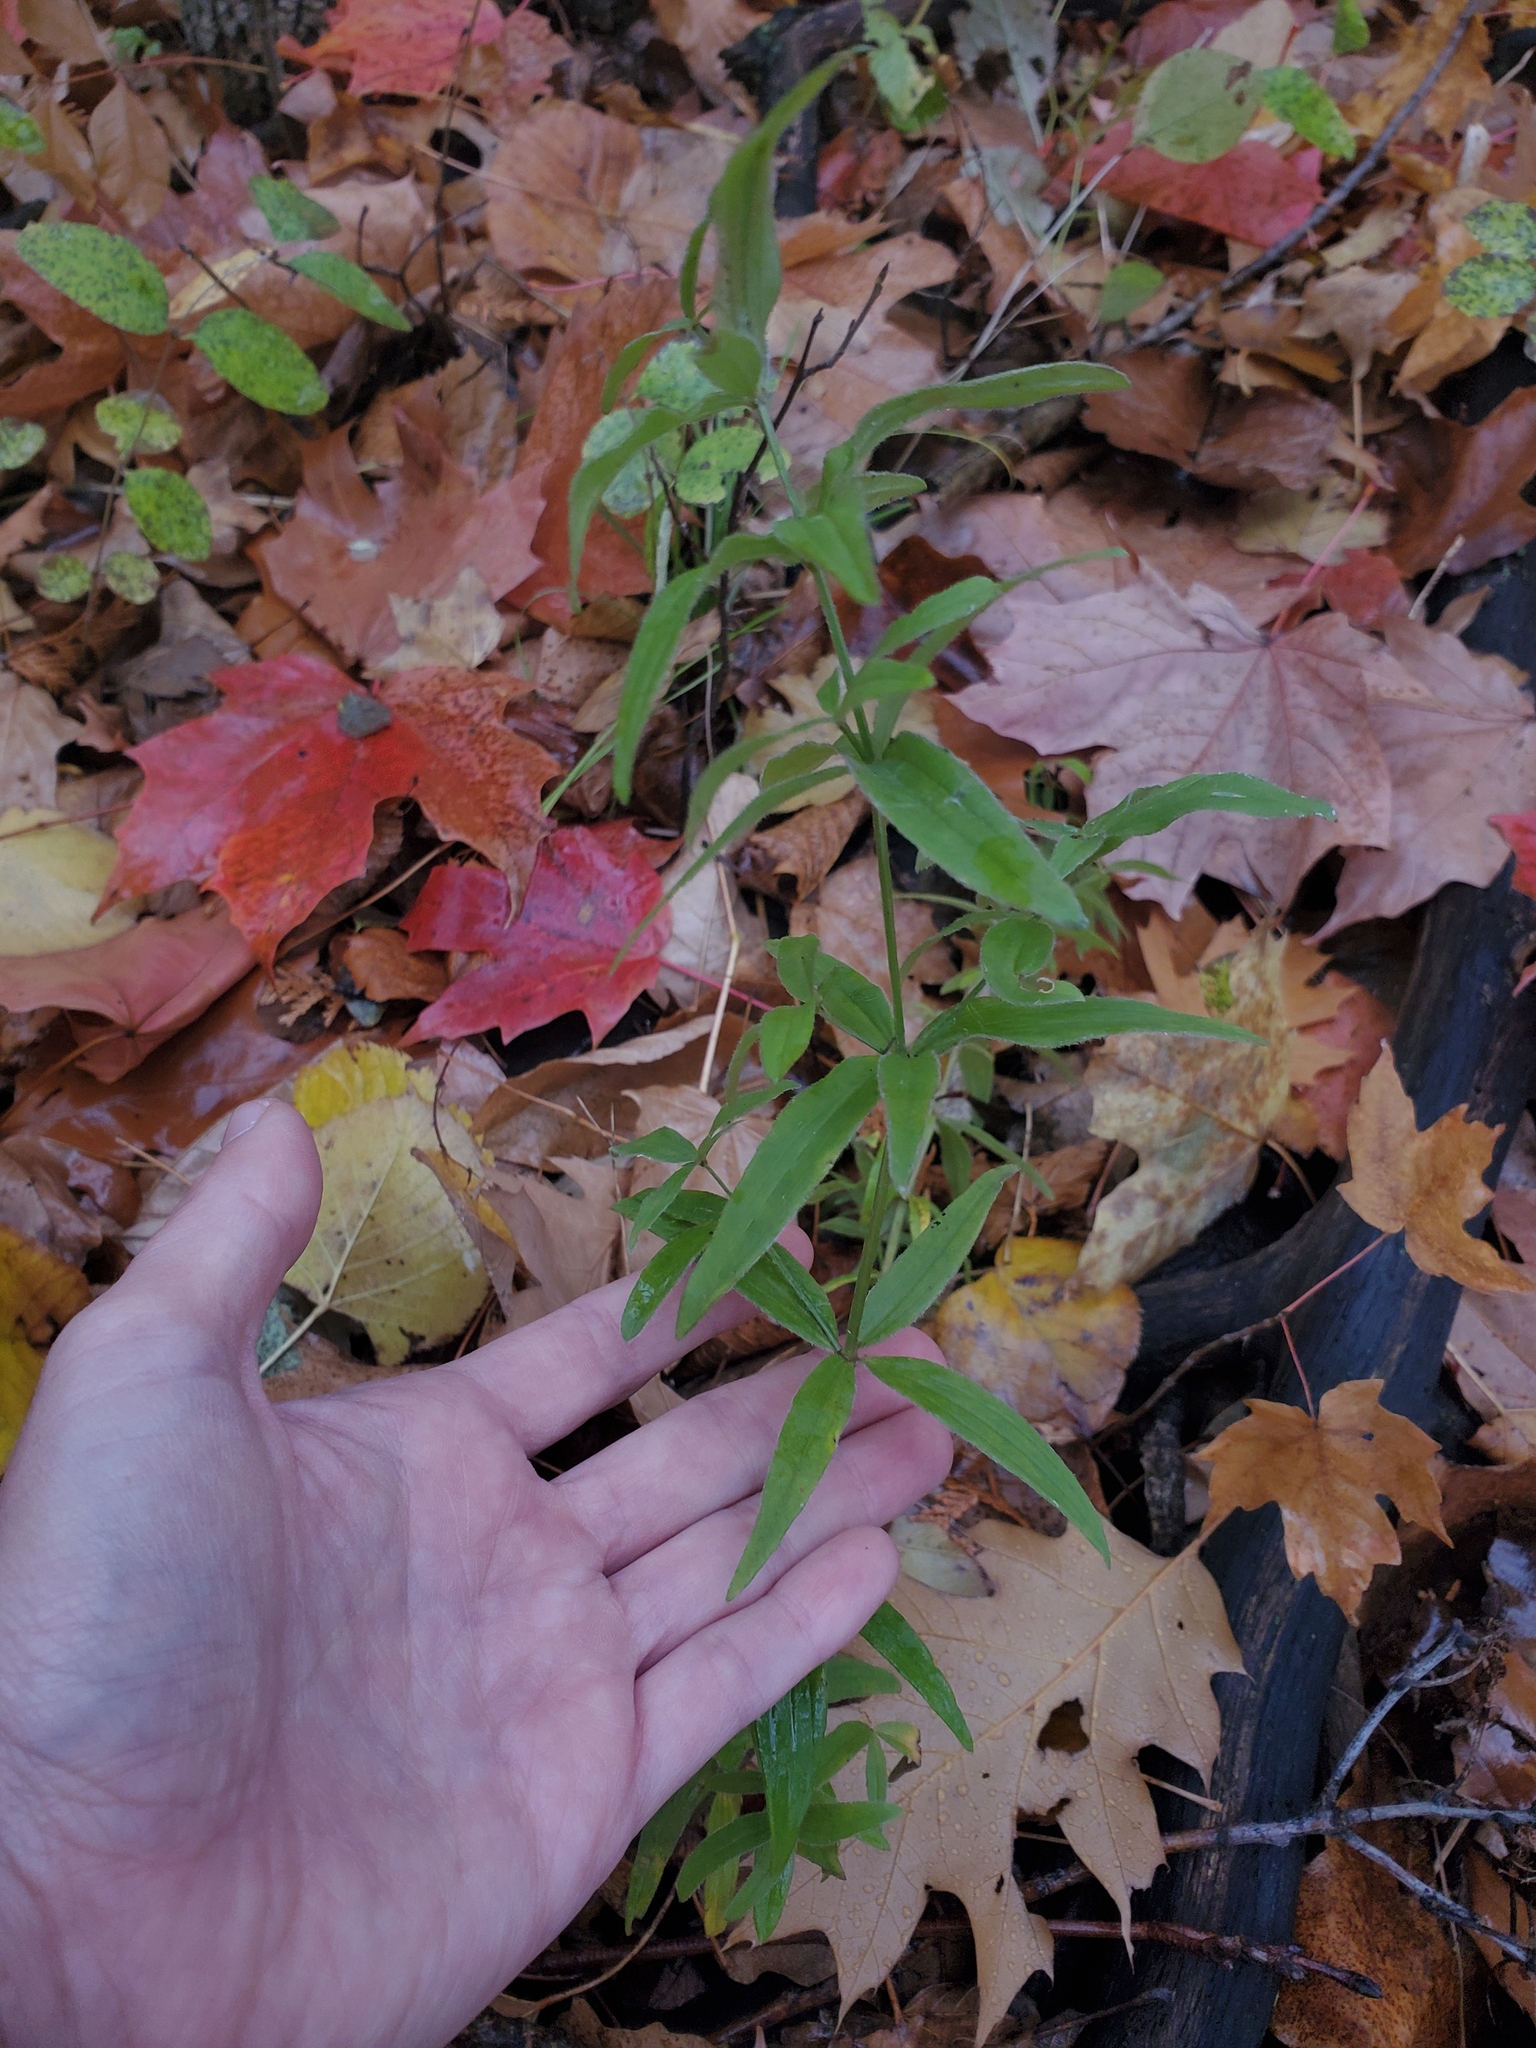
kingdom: Plantae
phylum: Tracheophyta
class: Magnoliopsida
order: Gentianales
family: Rubiaceae
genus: Galium
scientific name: Galium lanceolatum
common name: Lance-leaved wild licorice
